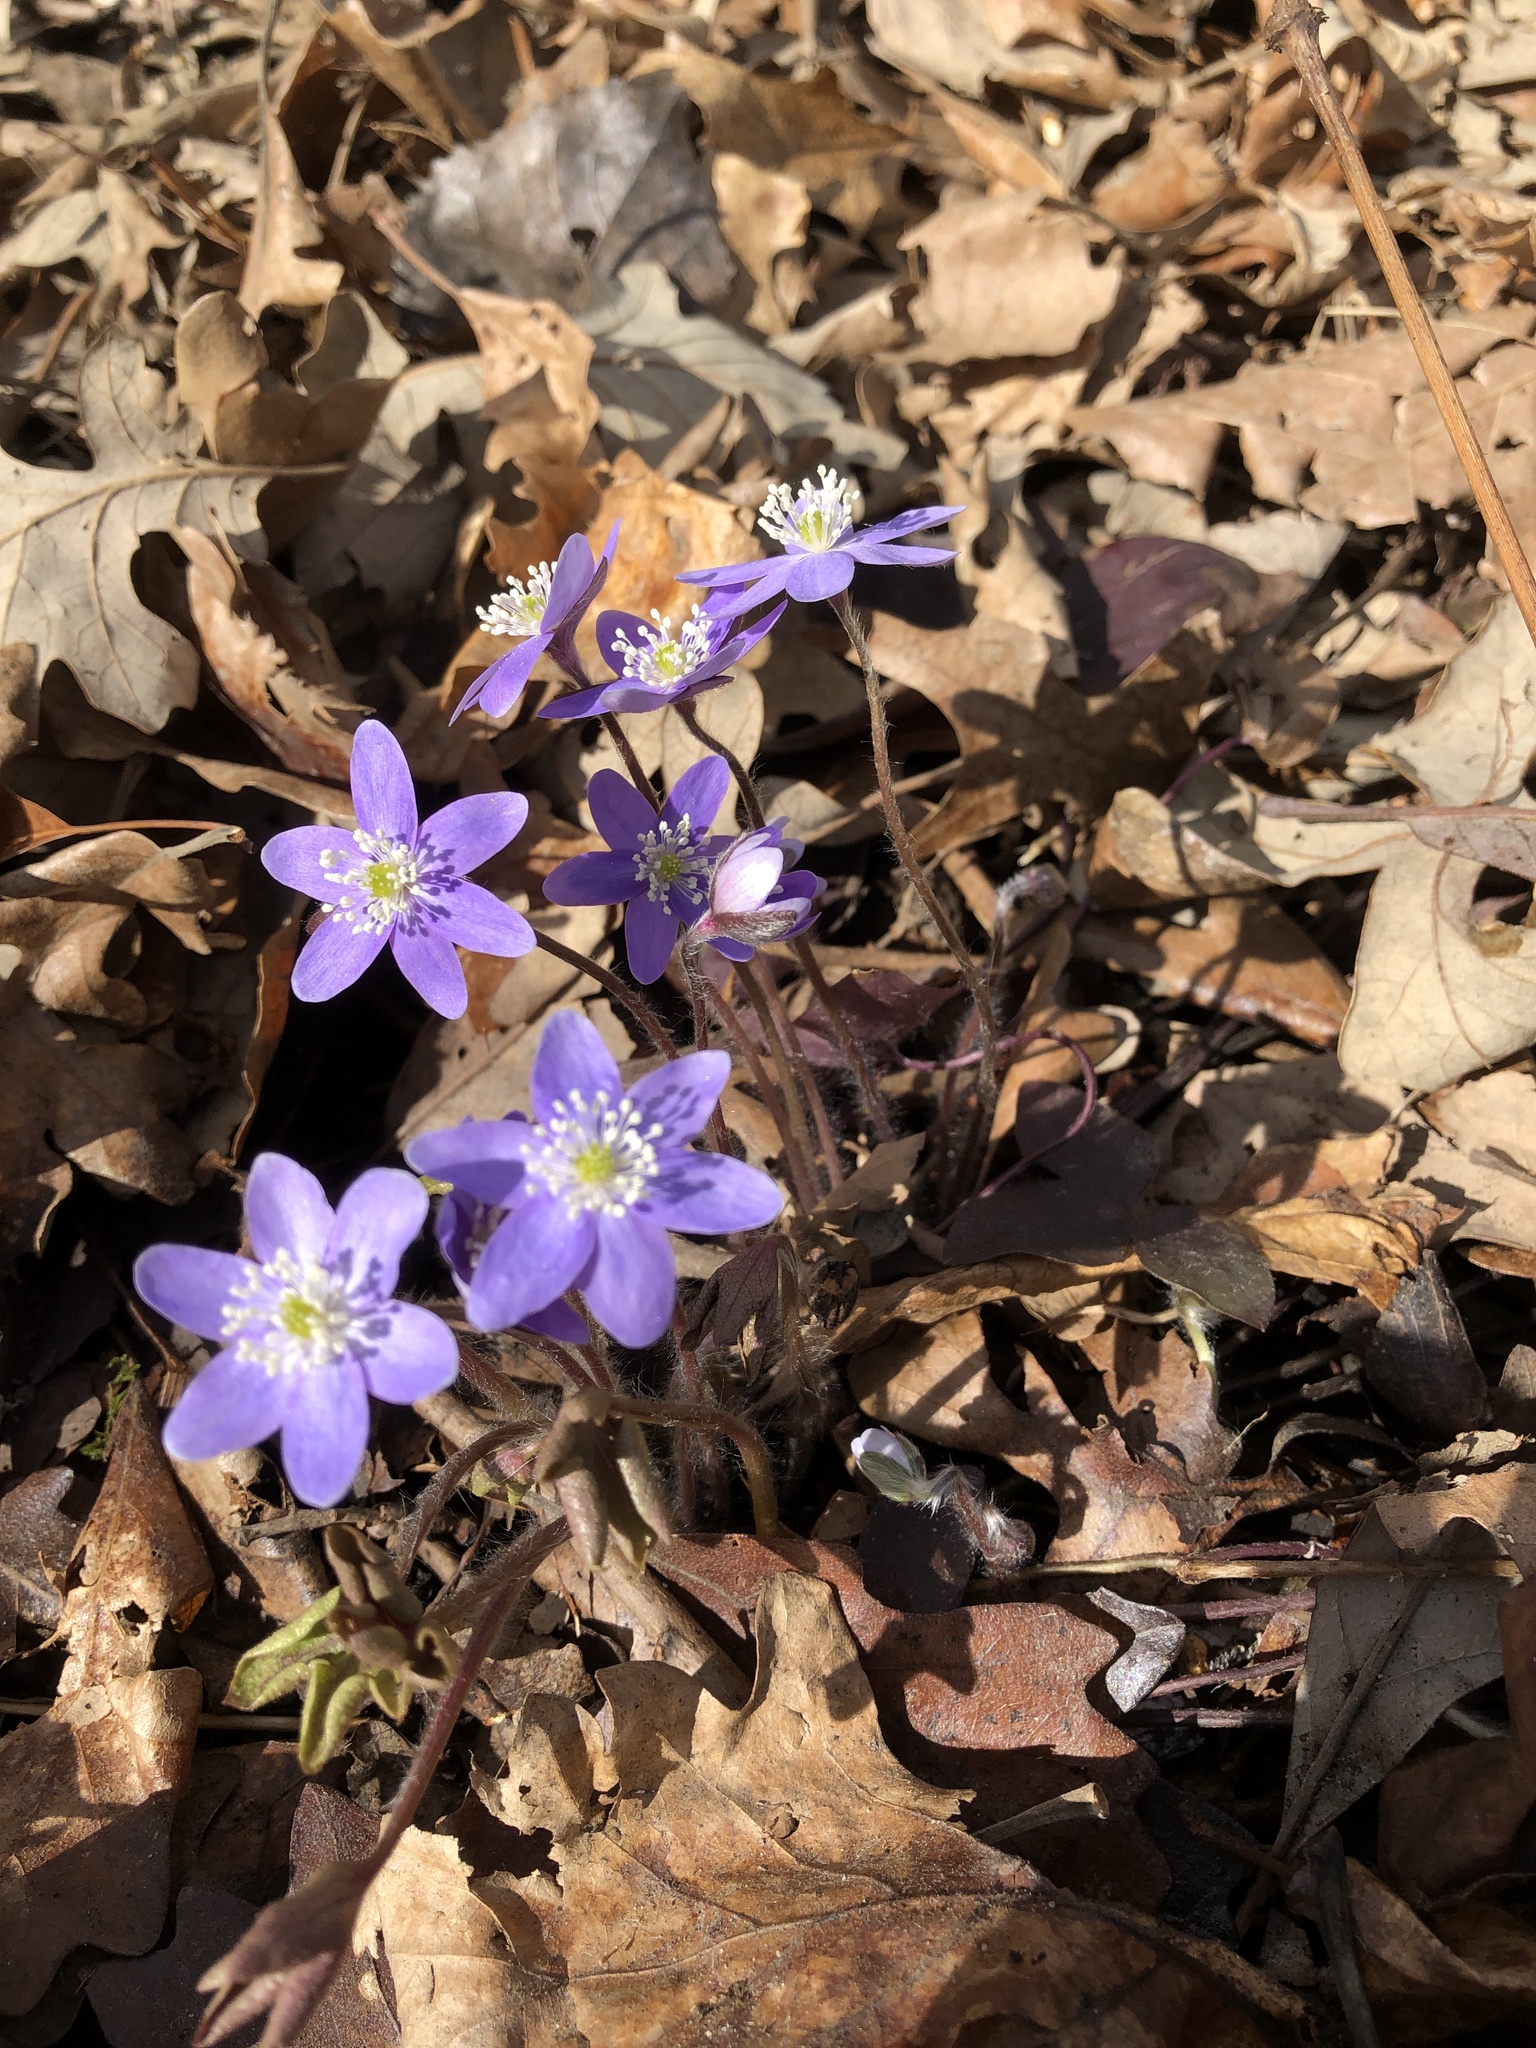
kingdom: Plantae
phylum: Tracheophyta
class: Magnoliopsida
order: Ranunculales
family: Ranunculaceae
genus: Hepatica
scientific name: Hepatica acutiloba
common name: Sharp-lobed hepatica
